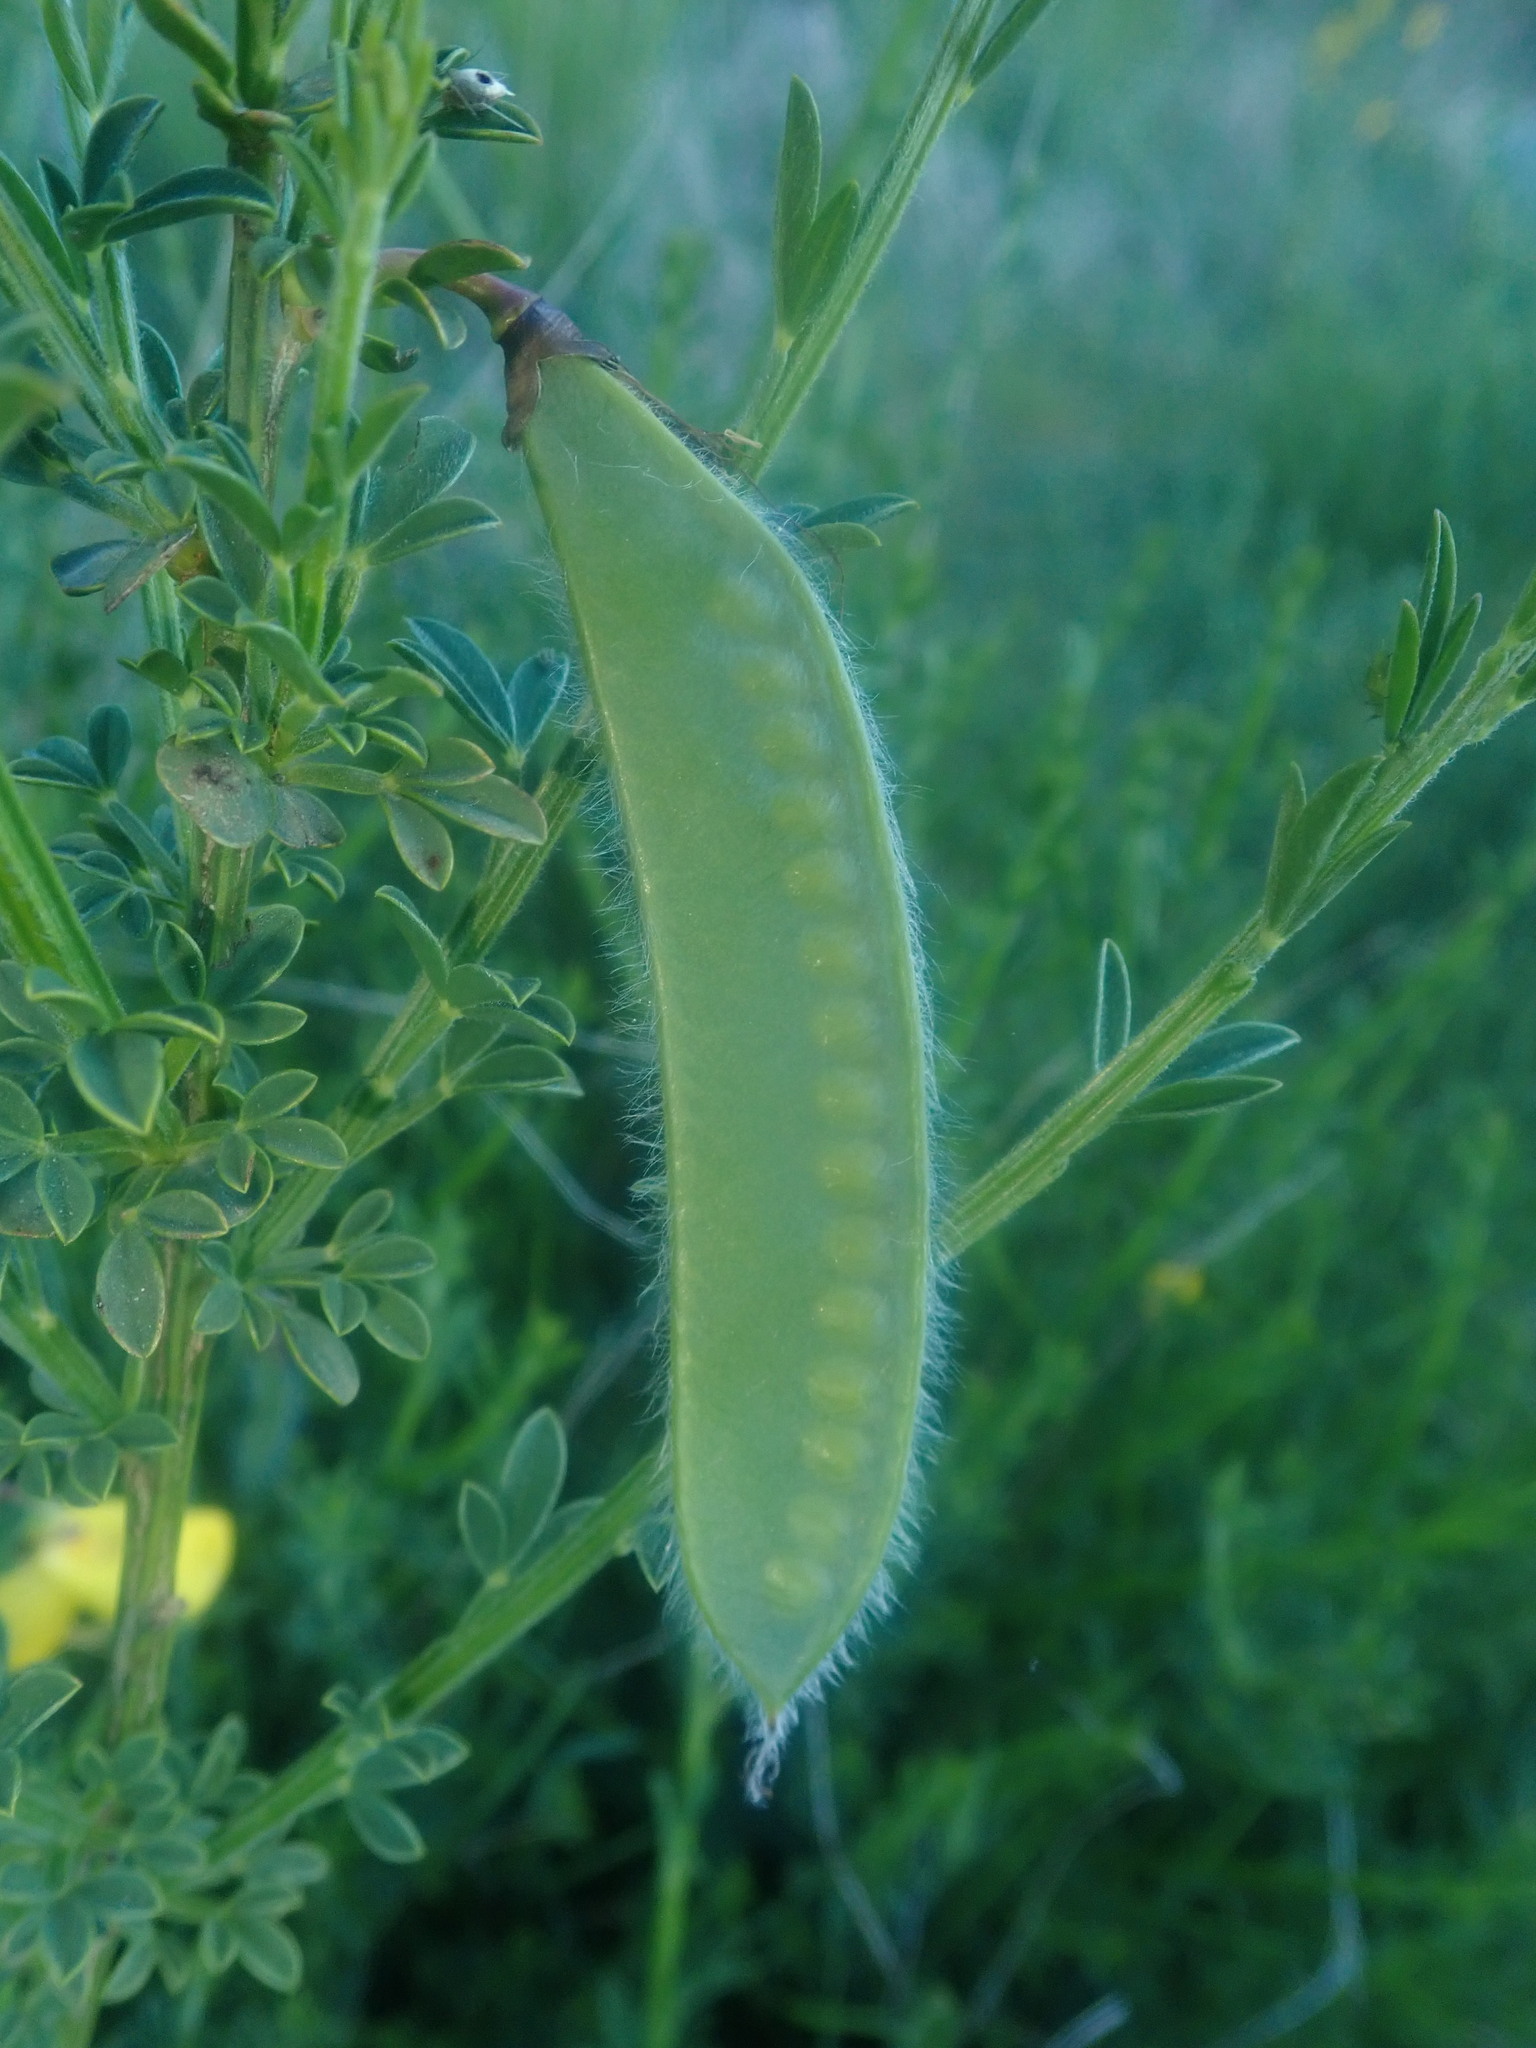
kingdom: Plantae
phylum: Tracheophyta
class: Magnoliopsida
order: Fabales
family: Fabaceae
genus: Cytisus
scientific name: Cytisus scoparius
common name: Scotch broom
